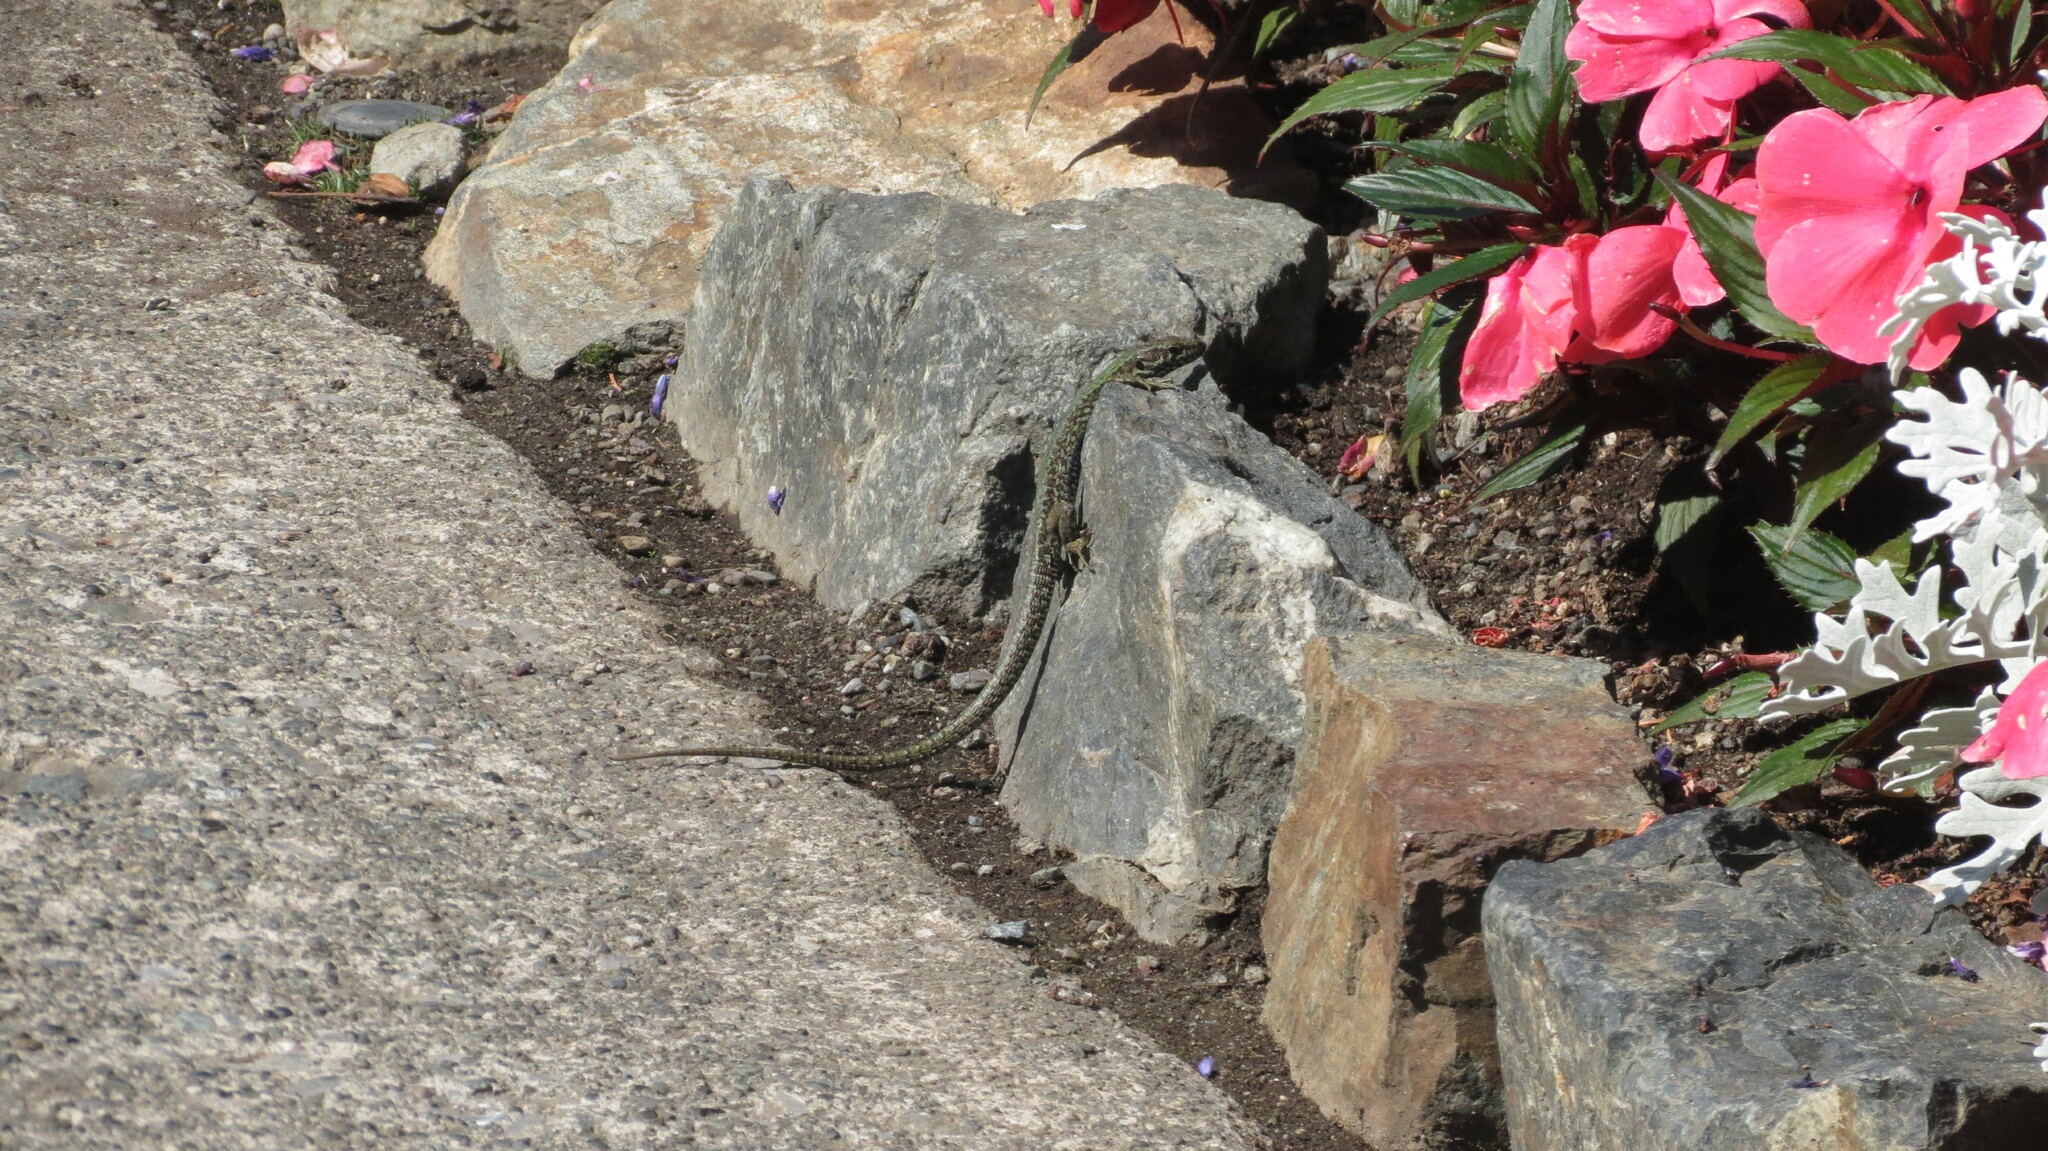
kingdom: Animalia
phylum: Chordata
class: Squamata
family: Lacertidae
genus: Podarcis
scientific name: Podarcis muralis
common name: Common wall lizard
